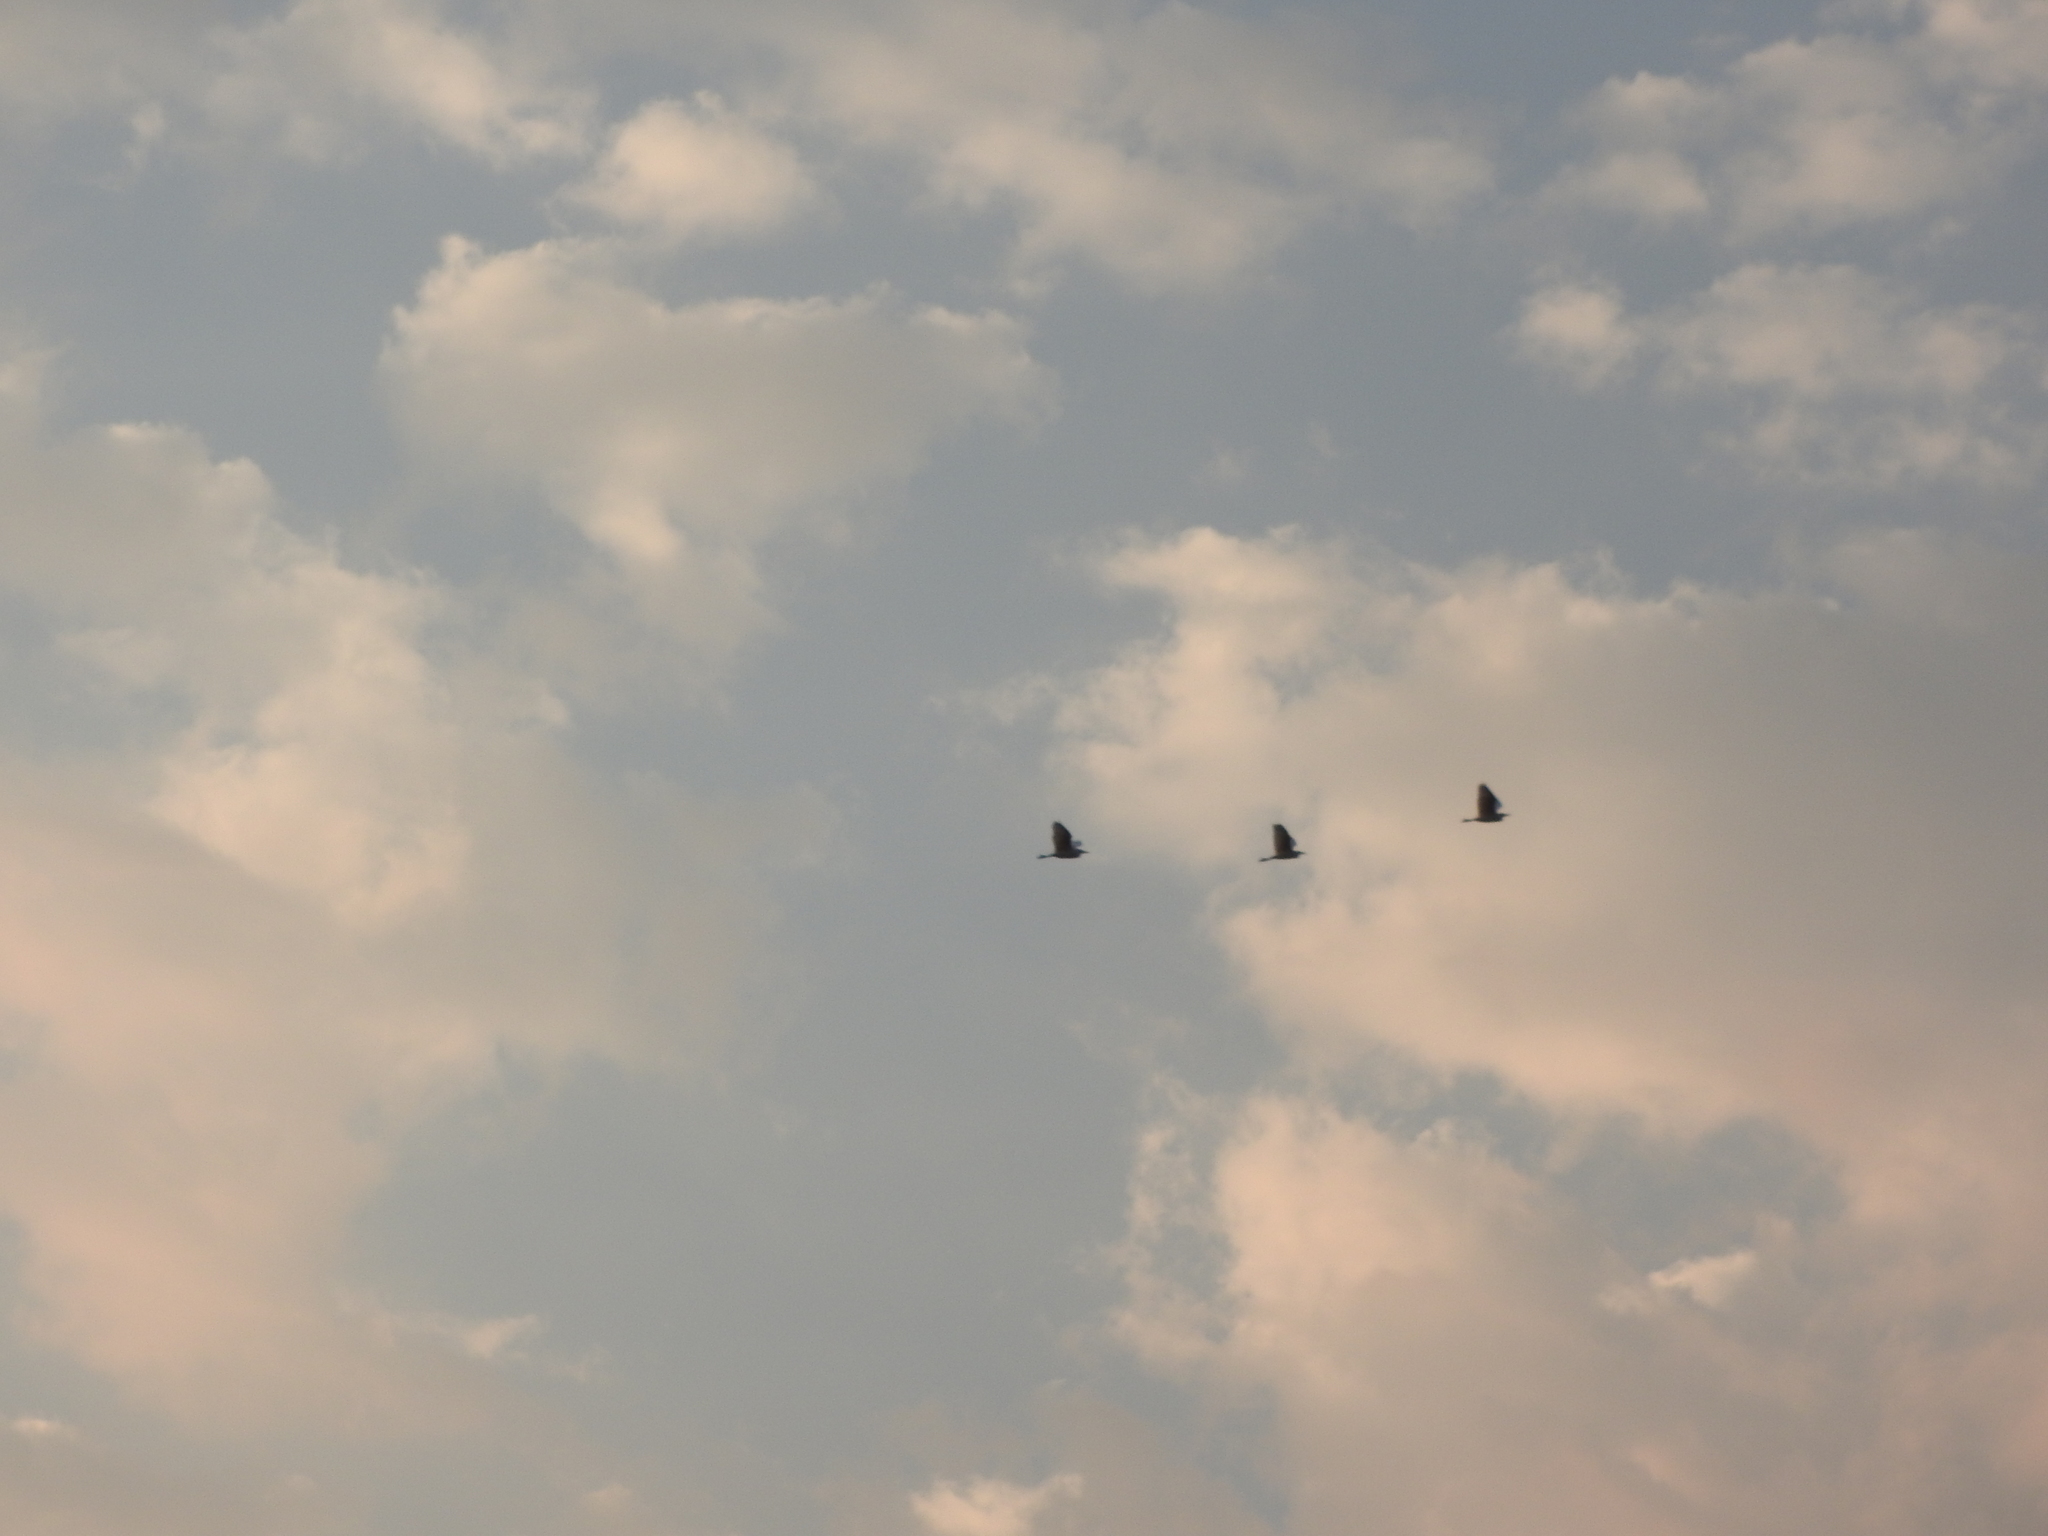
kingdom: Animalia
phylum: Chordata
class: Aves
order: Pelecaniformes
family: Ardeidae
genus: Bubulcus
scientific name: Bubulcus ibis
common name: Cattle egret
